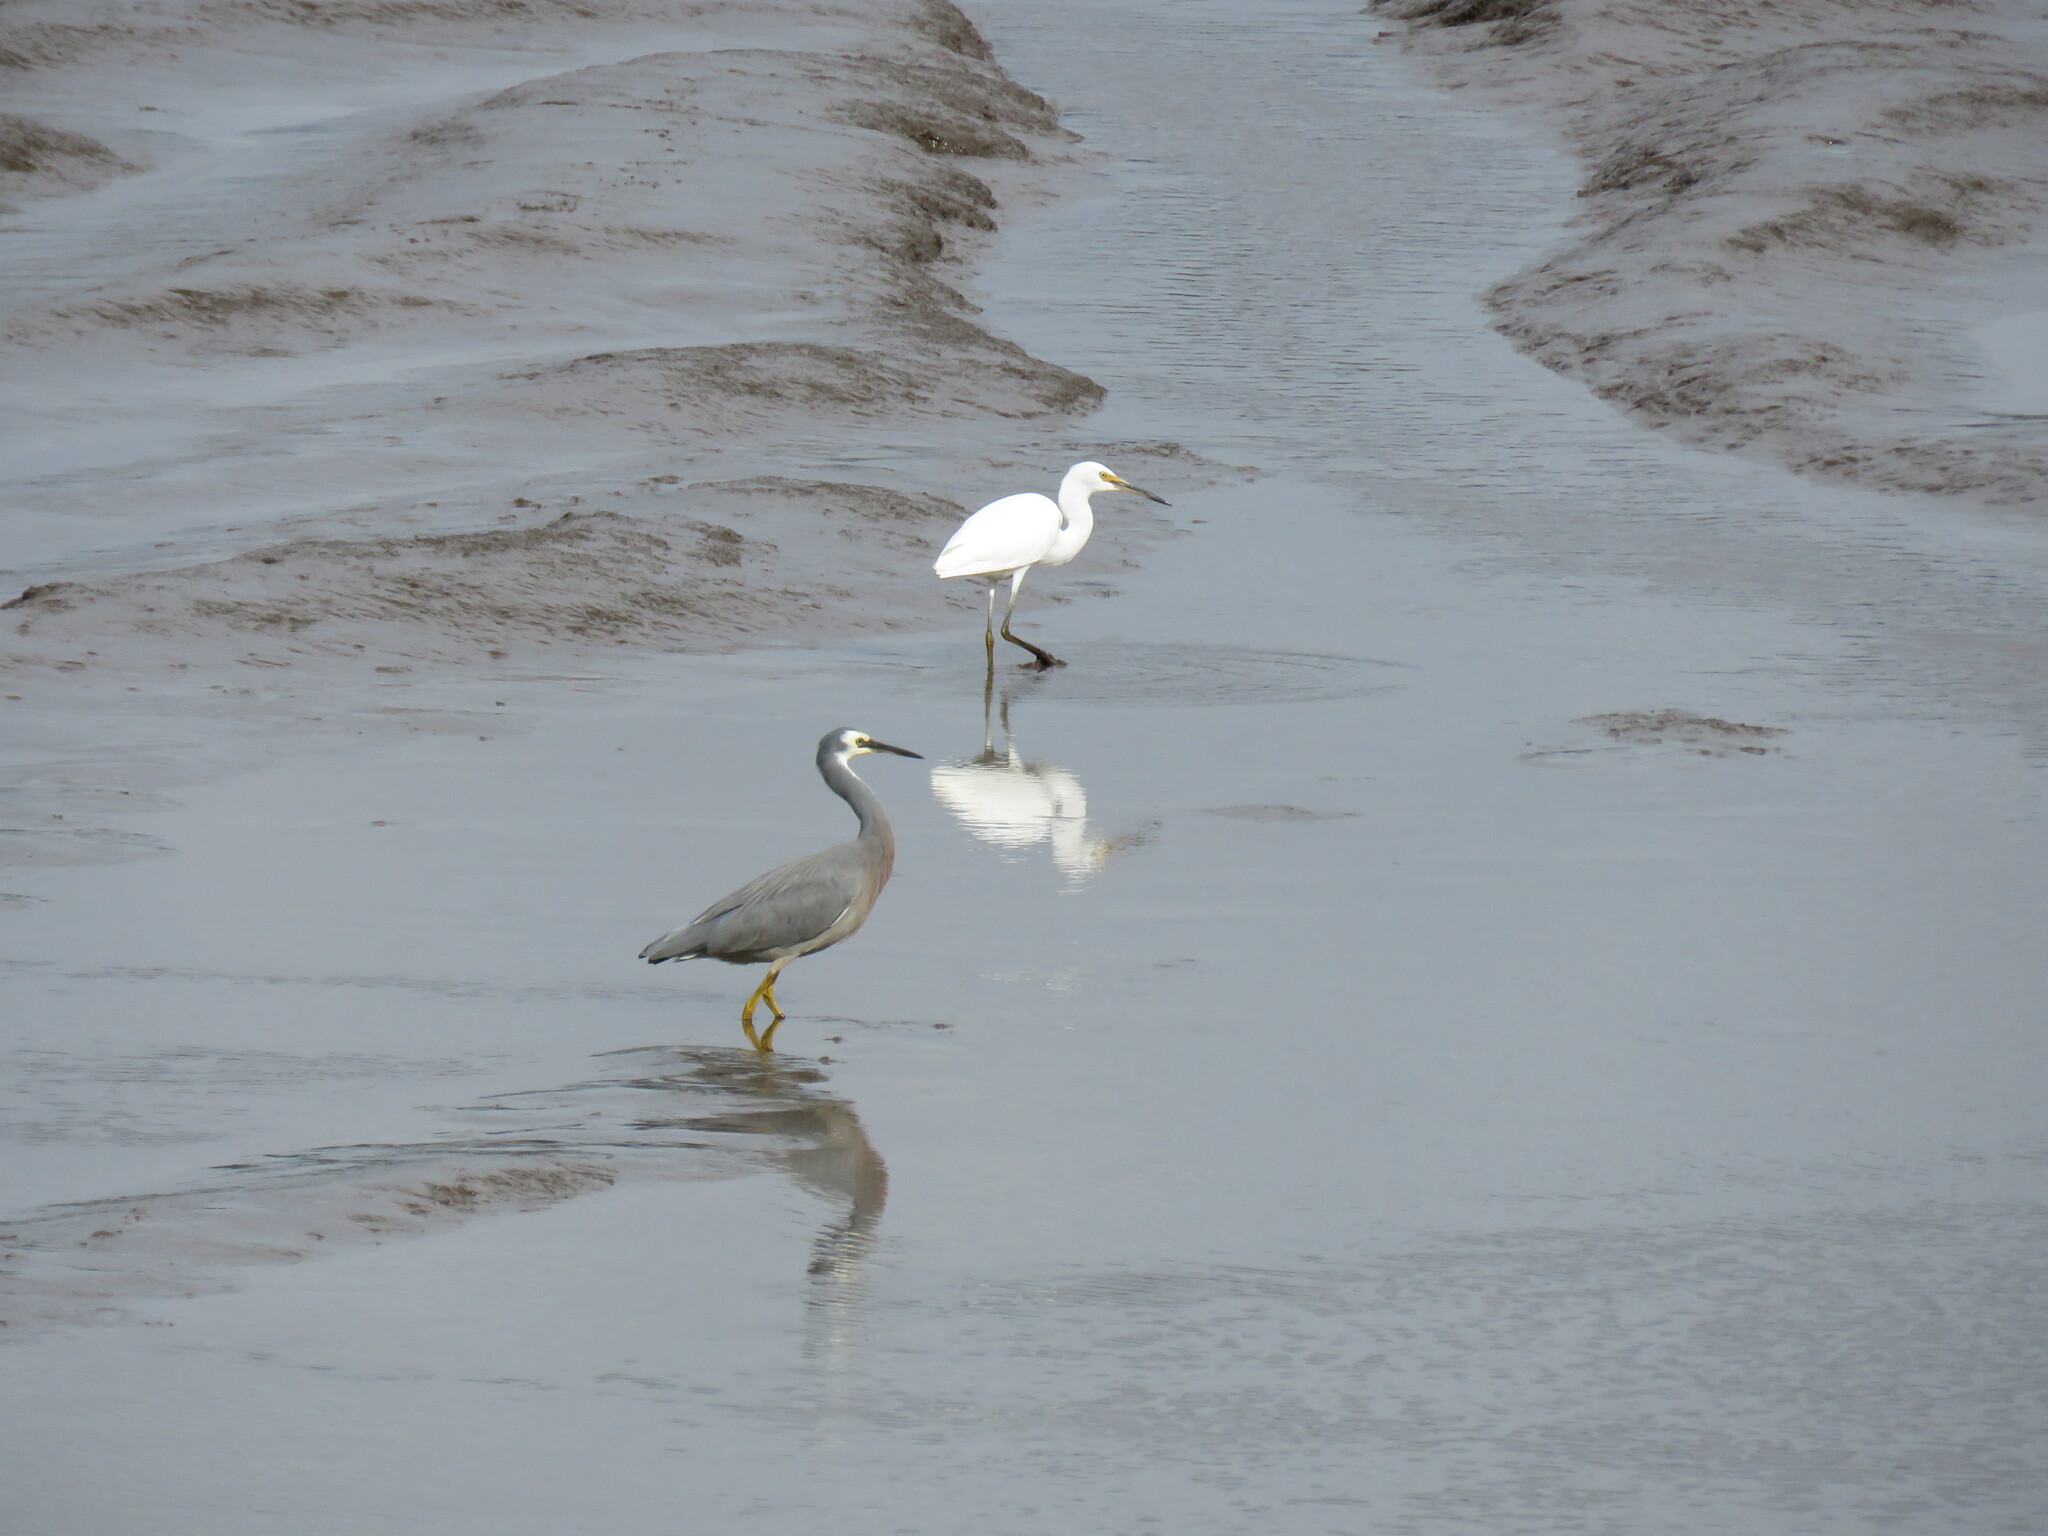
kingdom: Animalia
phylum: Chordata
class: Aves
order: Pelecaniformes
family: Ardeidae
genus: Egretta
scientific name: Egretta novaehollandiae
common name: White-faced heron
